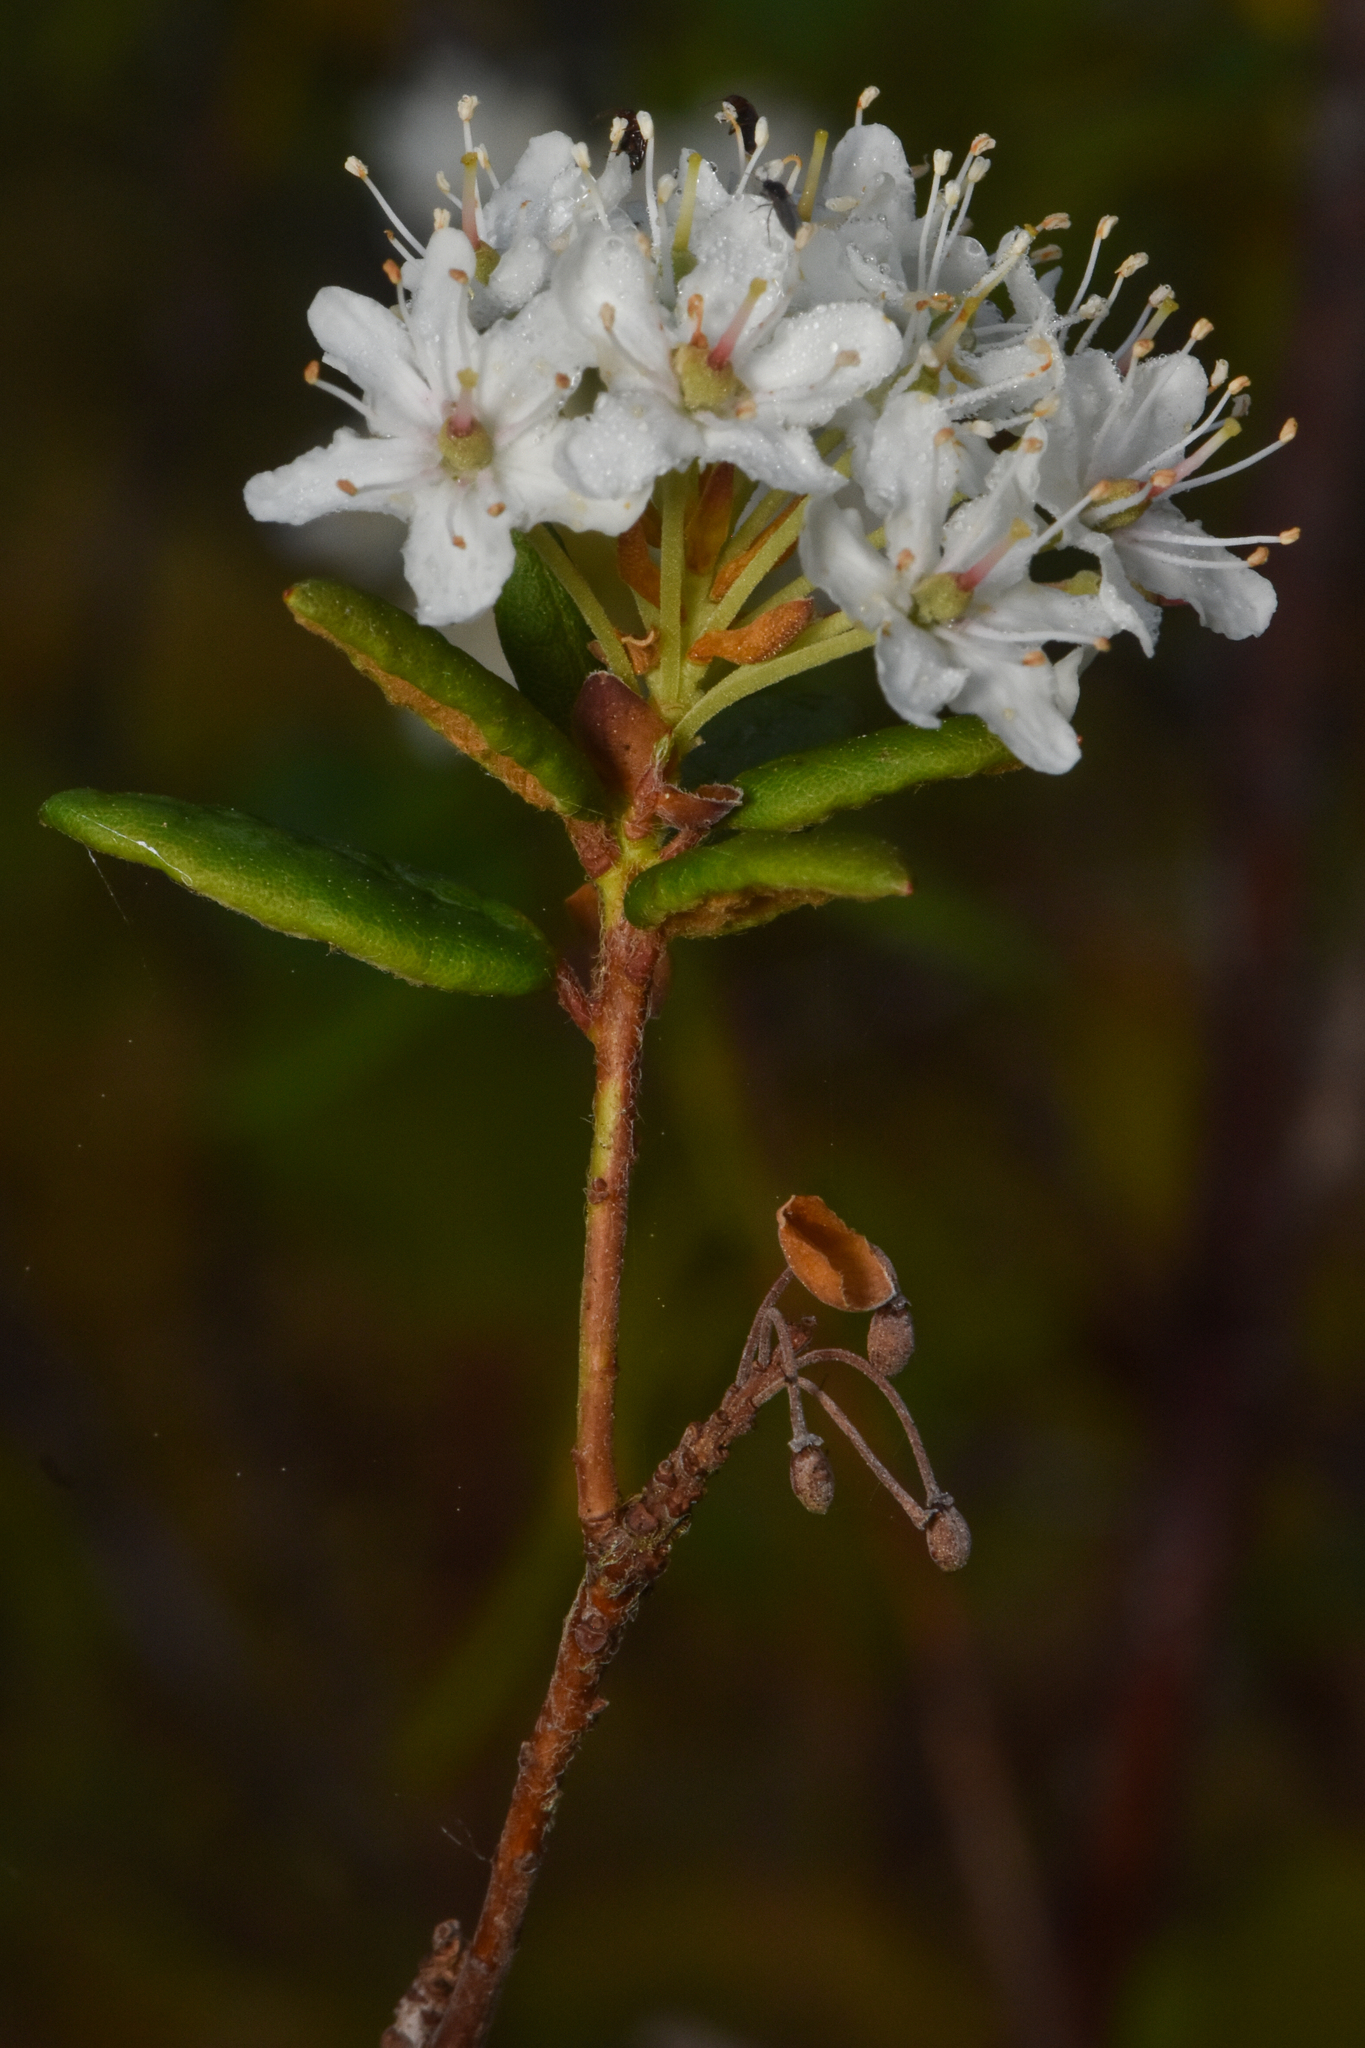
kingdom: Plantae
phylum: Tracheophyta
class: Magnoliopsida
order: Ericales
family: Ericaceae
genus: Rhododendron
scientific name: Rhododendron groenlandicum
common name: Bog labrador tea
